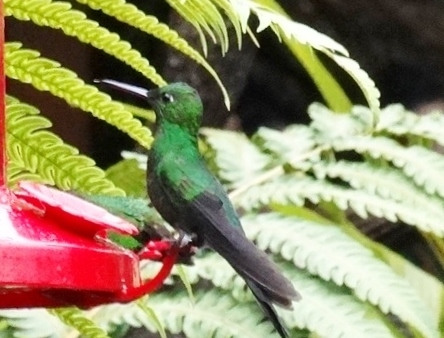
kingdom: Animalia
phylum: Chordata
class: Aves
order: Apodiformes
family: Trochilidae
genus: Heliodoxa
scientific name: Heliodoxa jacula
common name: Green-crowned brilliant
